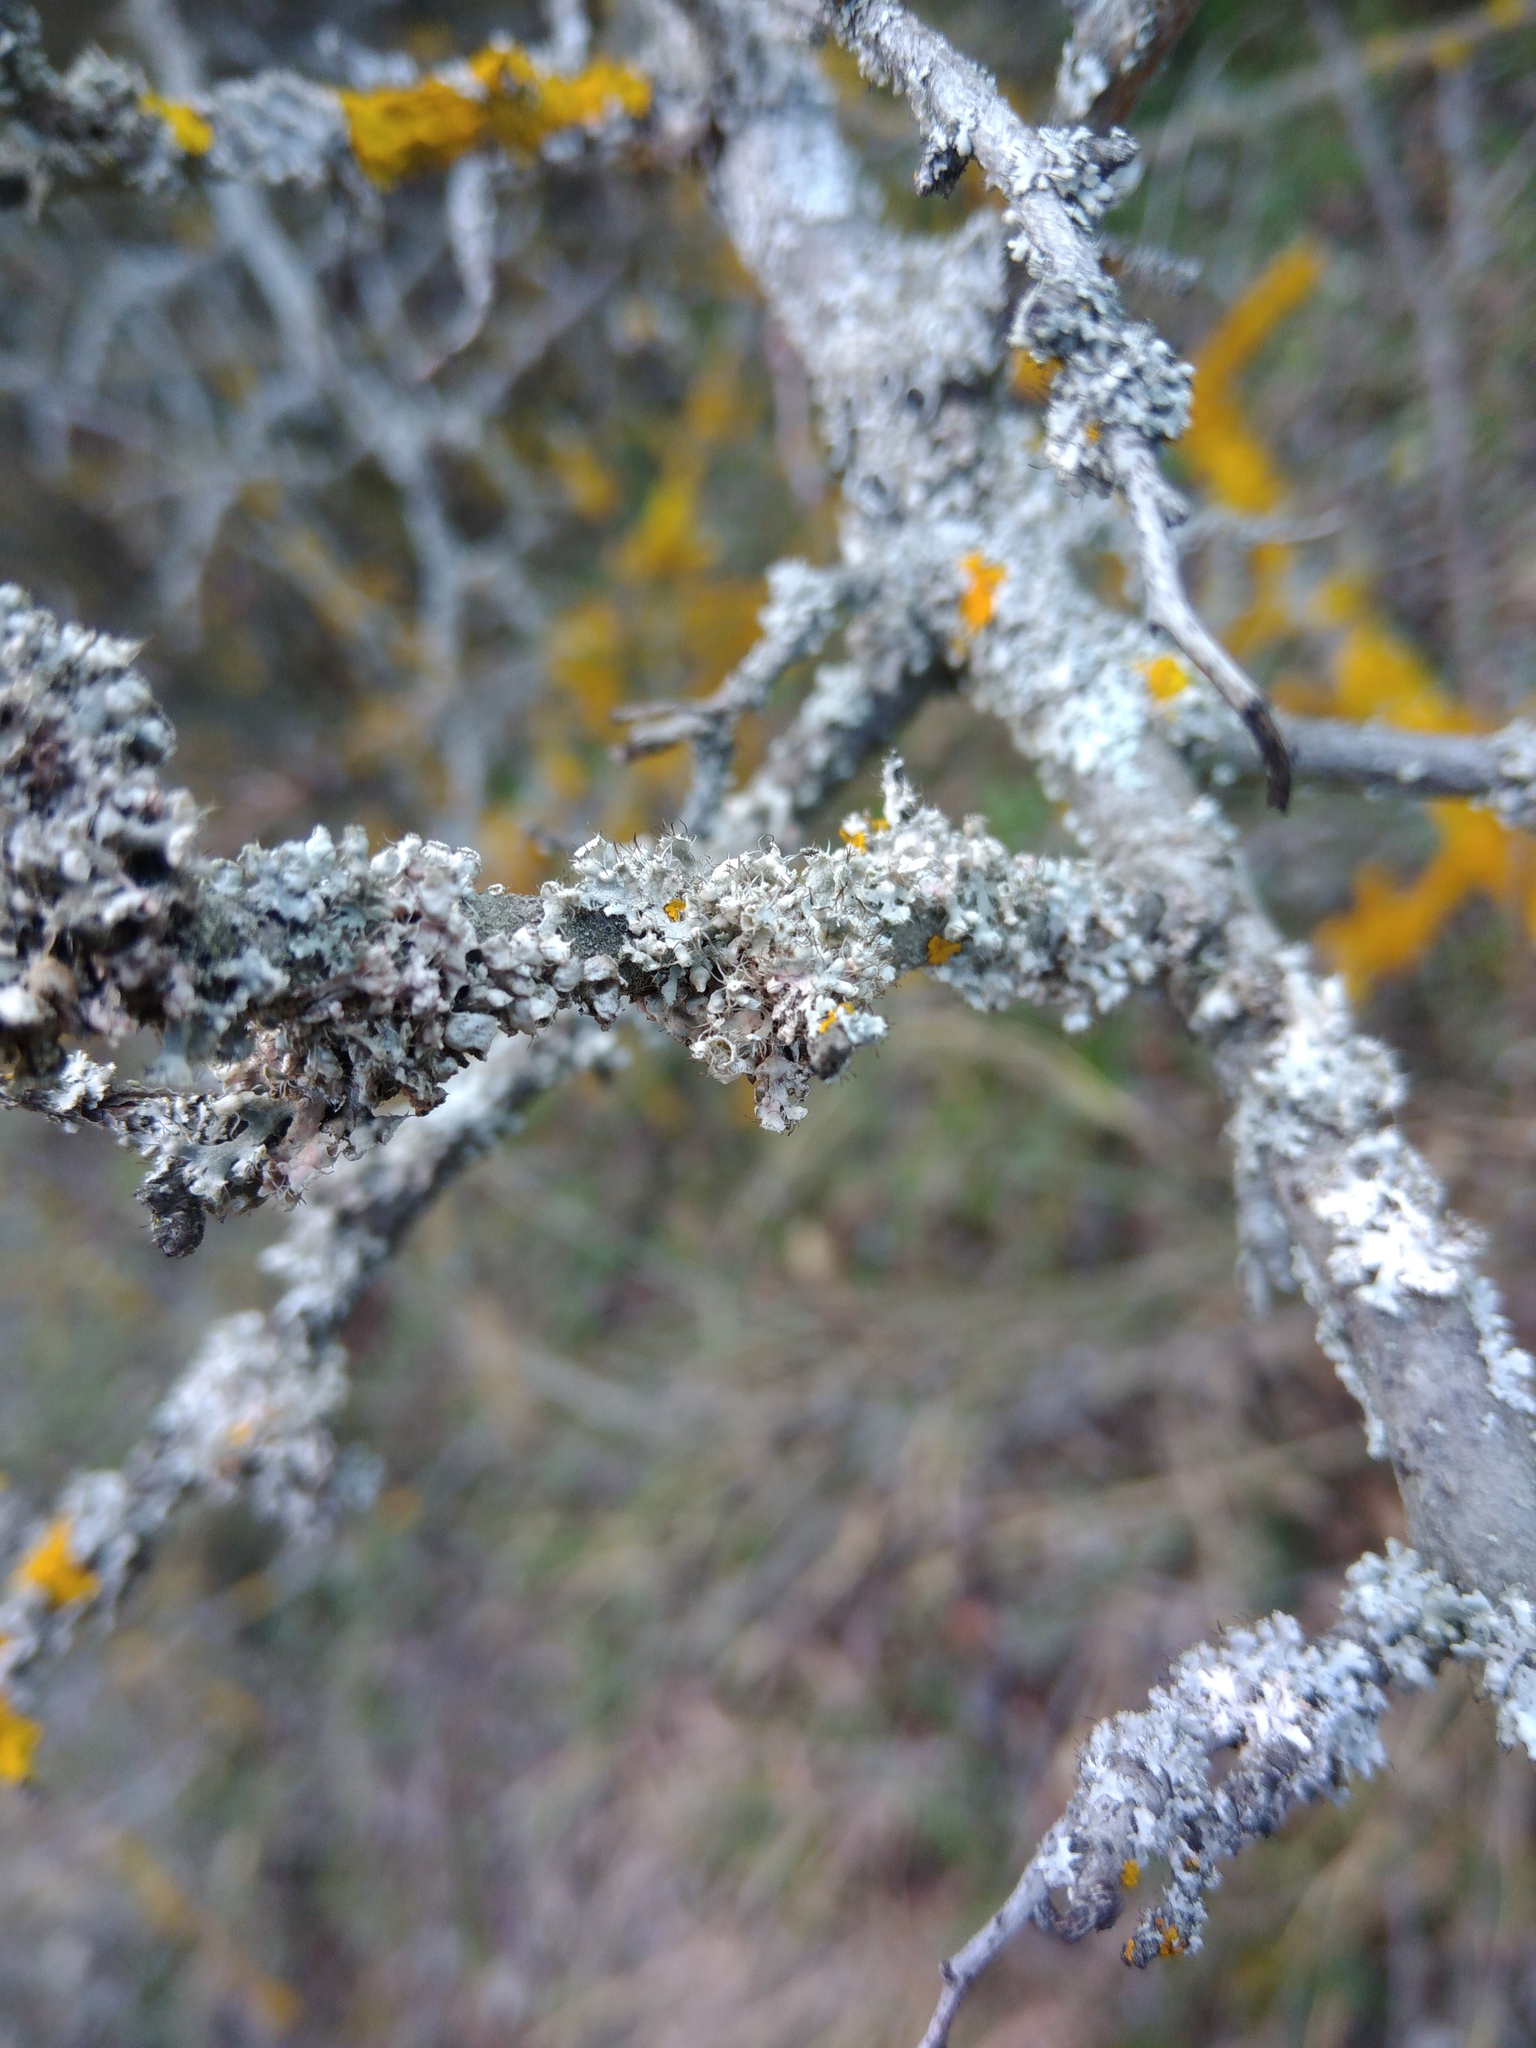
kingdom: Fungi
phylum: Ascomycota
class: Lecanoromycetes
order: Caliciales
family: Physciaceae
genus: Physcia
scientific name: Physcia adscendens
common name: Hooded rosette lichen
